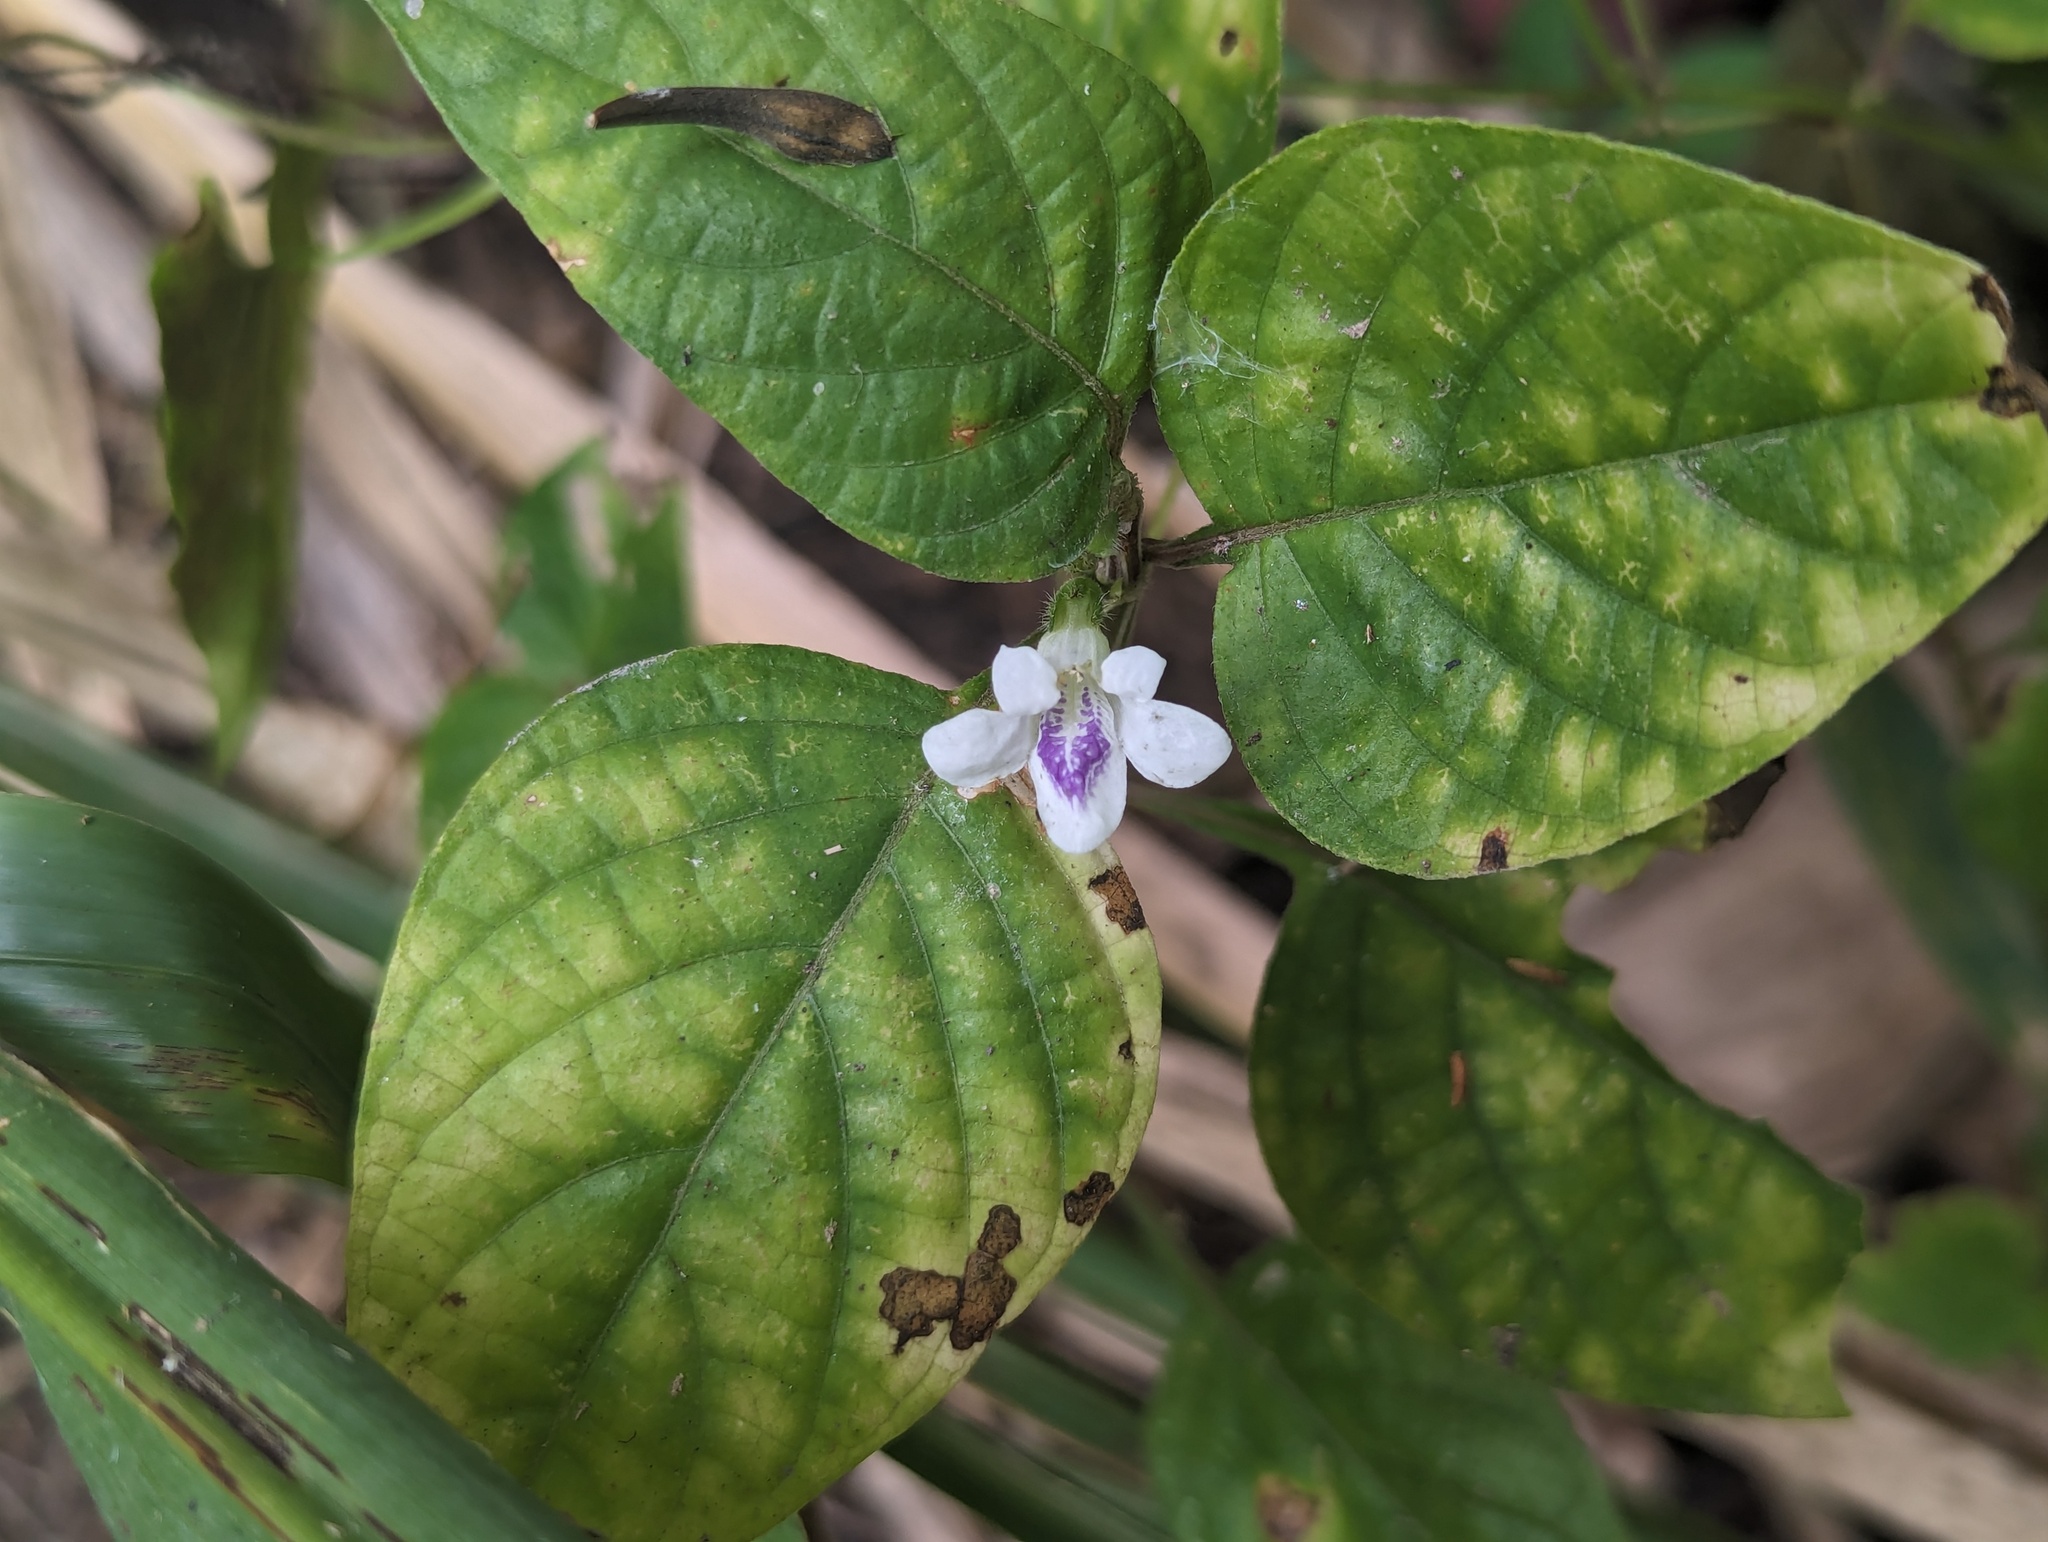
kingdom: Plantae
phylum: Tracheophyta
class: Magnoliopsida
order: Lamiales
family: Acanthaceae
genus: Asystasia
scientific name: Asystasia intrusa
